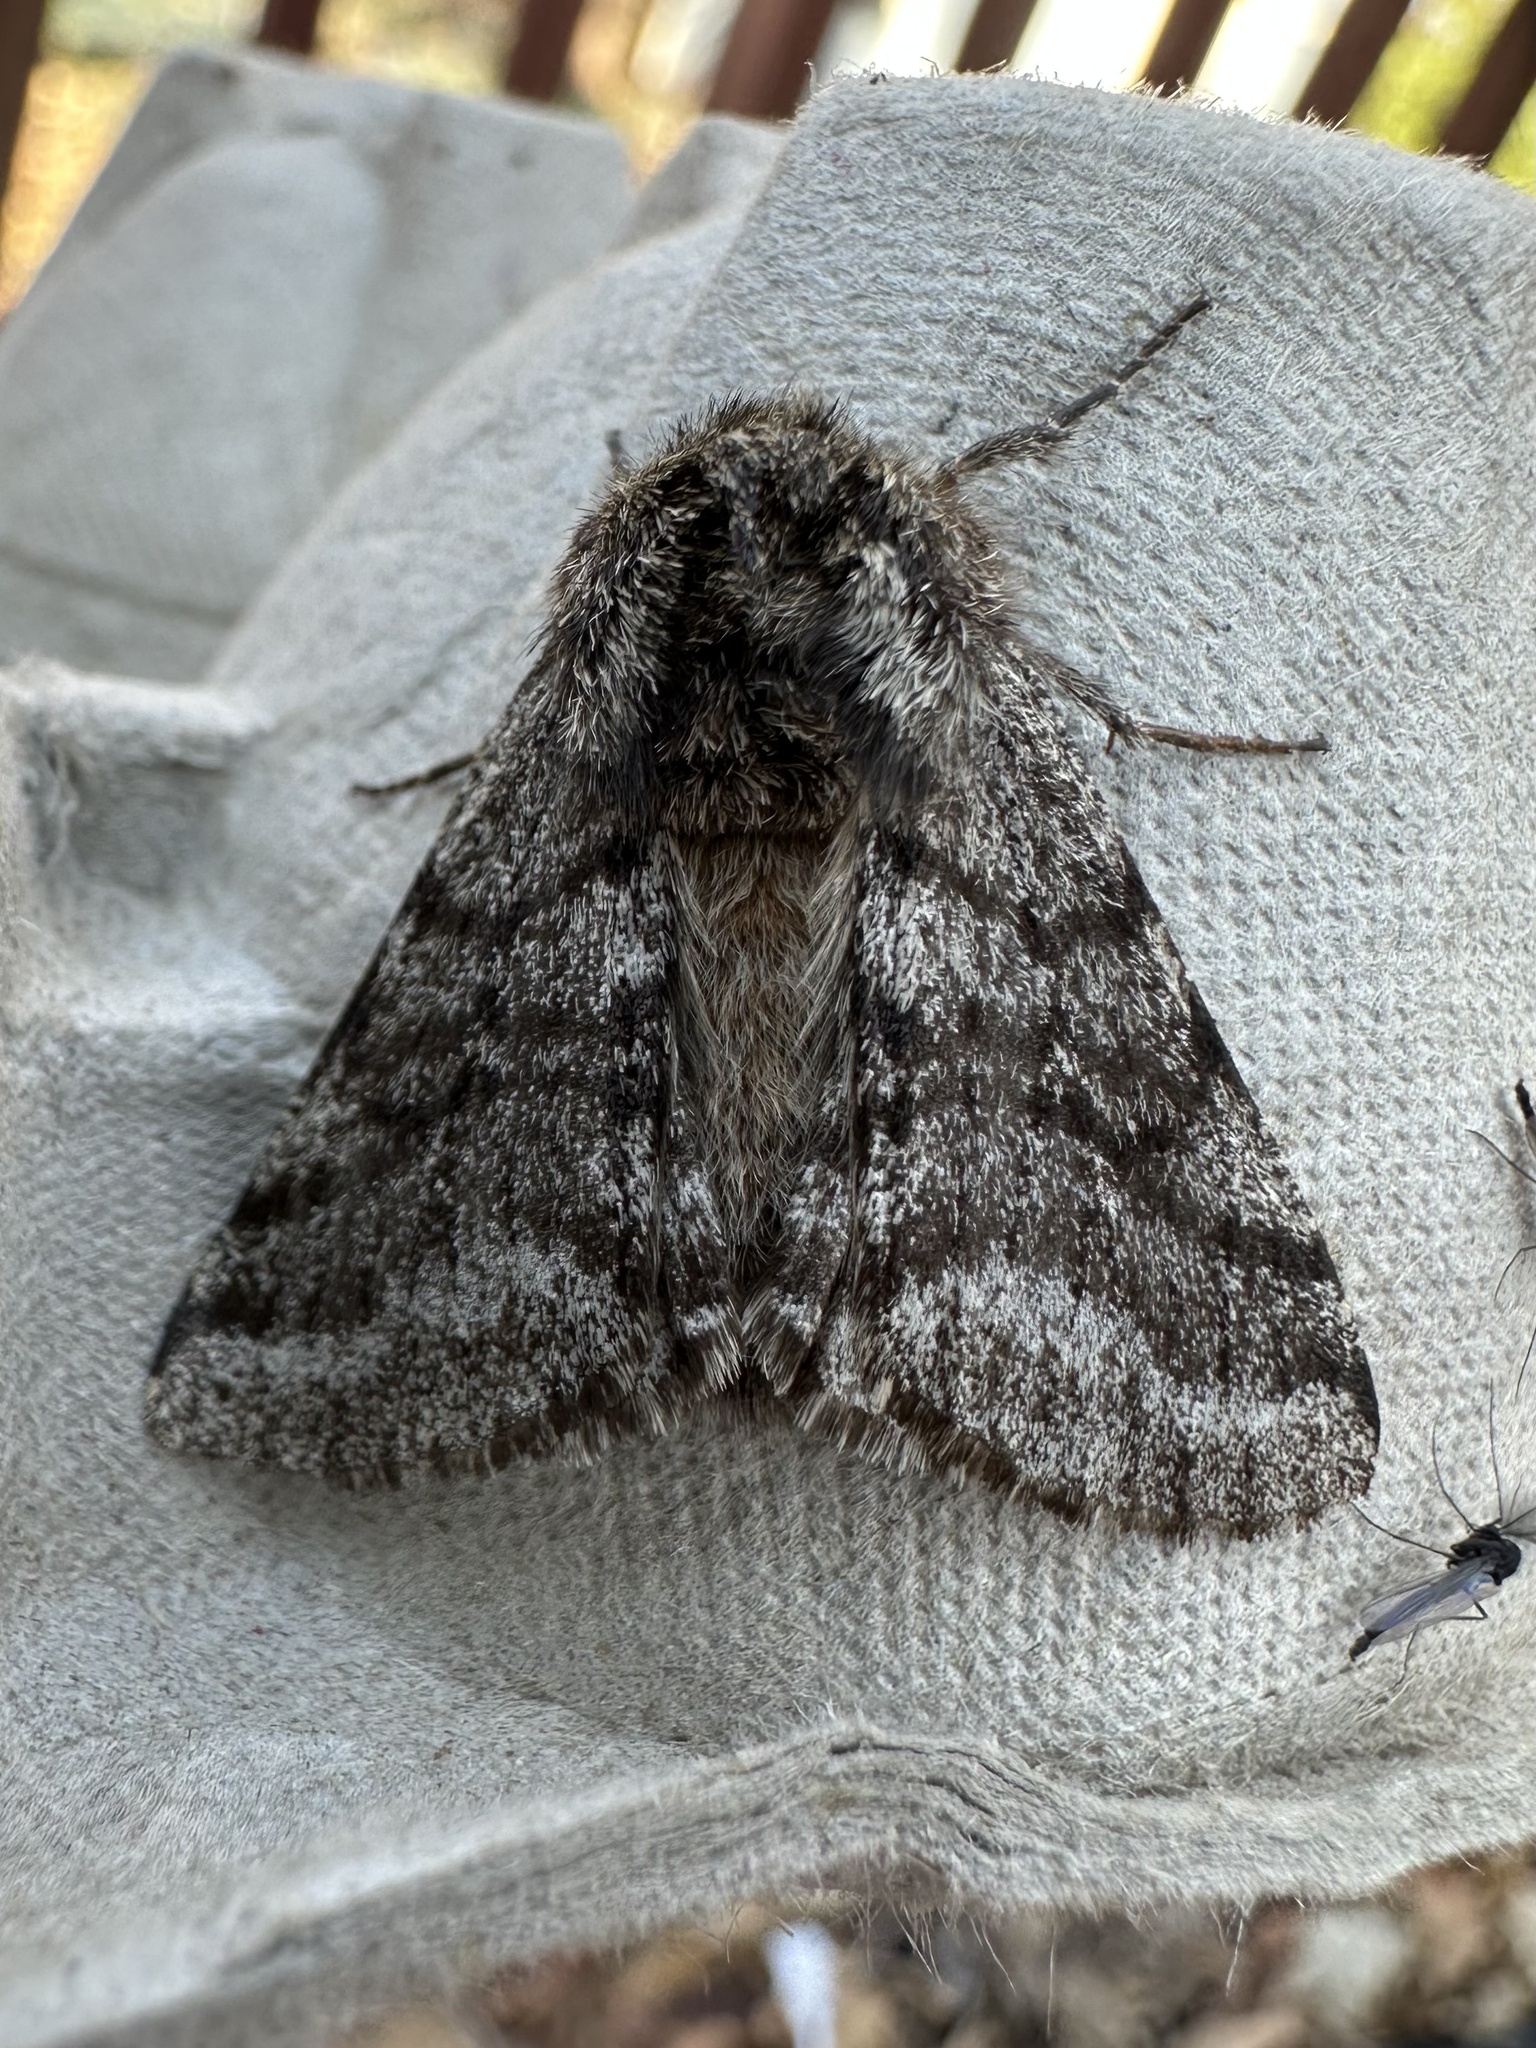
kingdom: Animalia
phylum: Arthropoda
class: Insecta
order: Lepidoptera
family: Geometridae
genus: Lycia
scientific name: Lycia ursaria
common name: Stout spanworm
